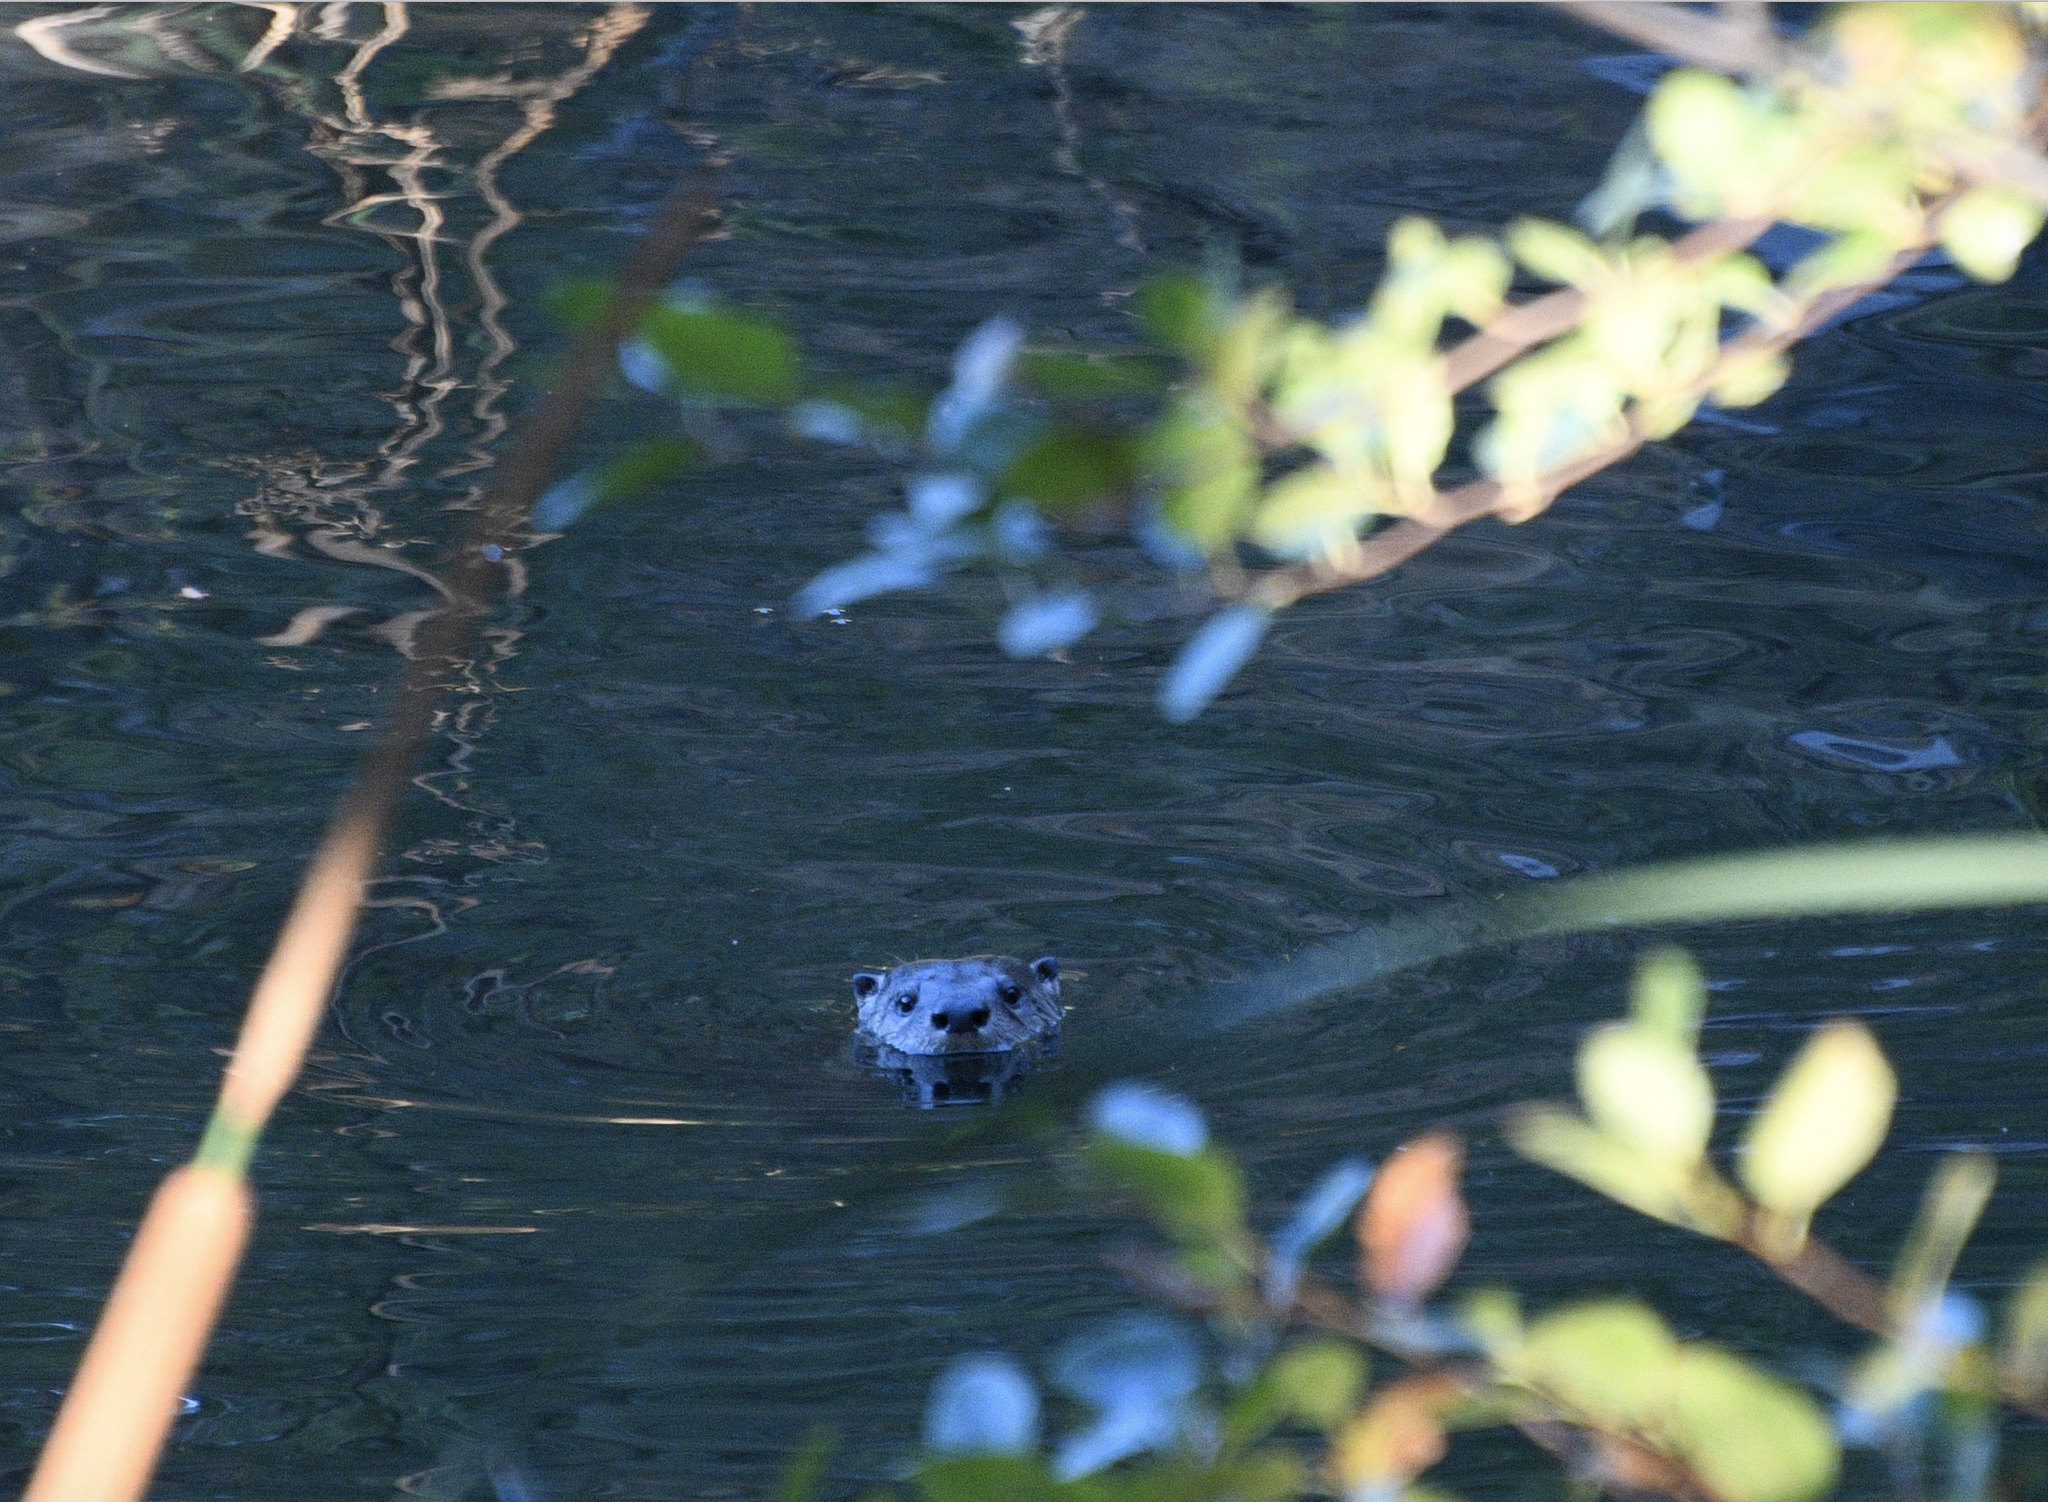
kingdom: Animalia
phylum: Chordata
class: Mammalia
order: Carnivora
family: Mustelidae
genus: Lontra
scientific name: Lontra canadensis
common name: North american river otter
